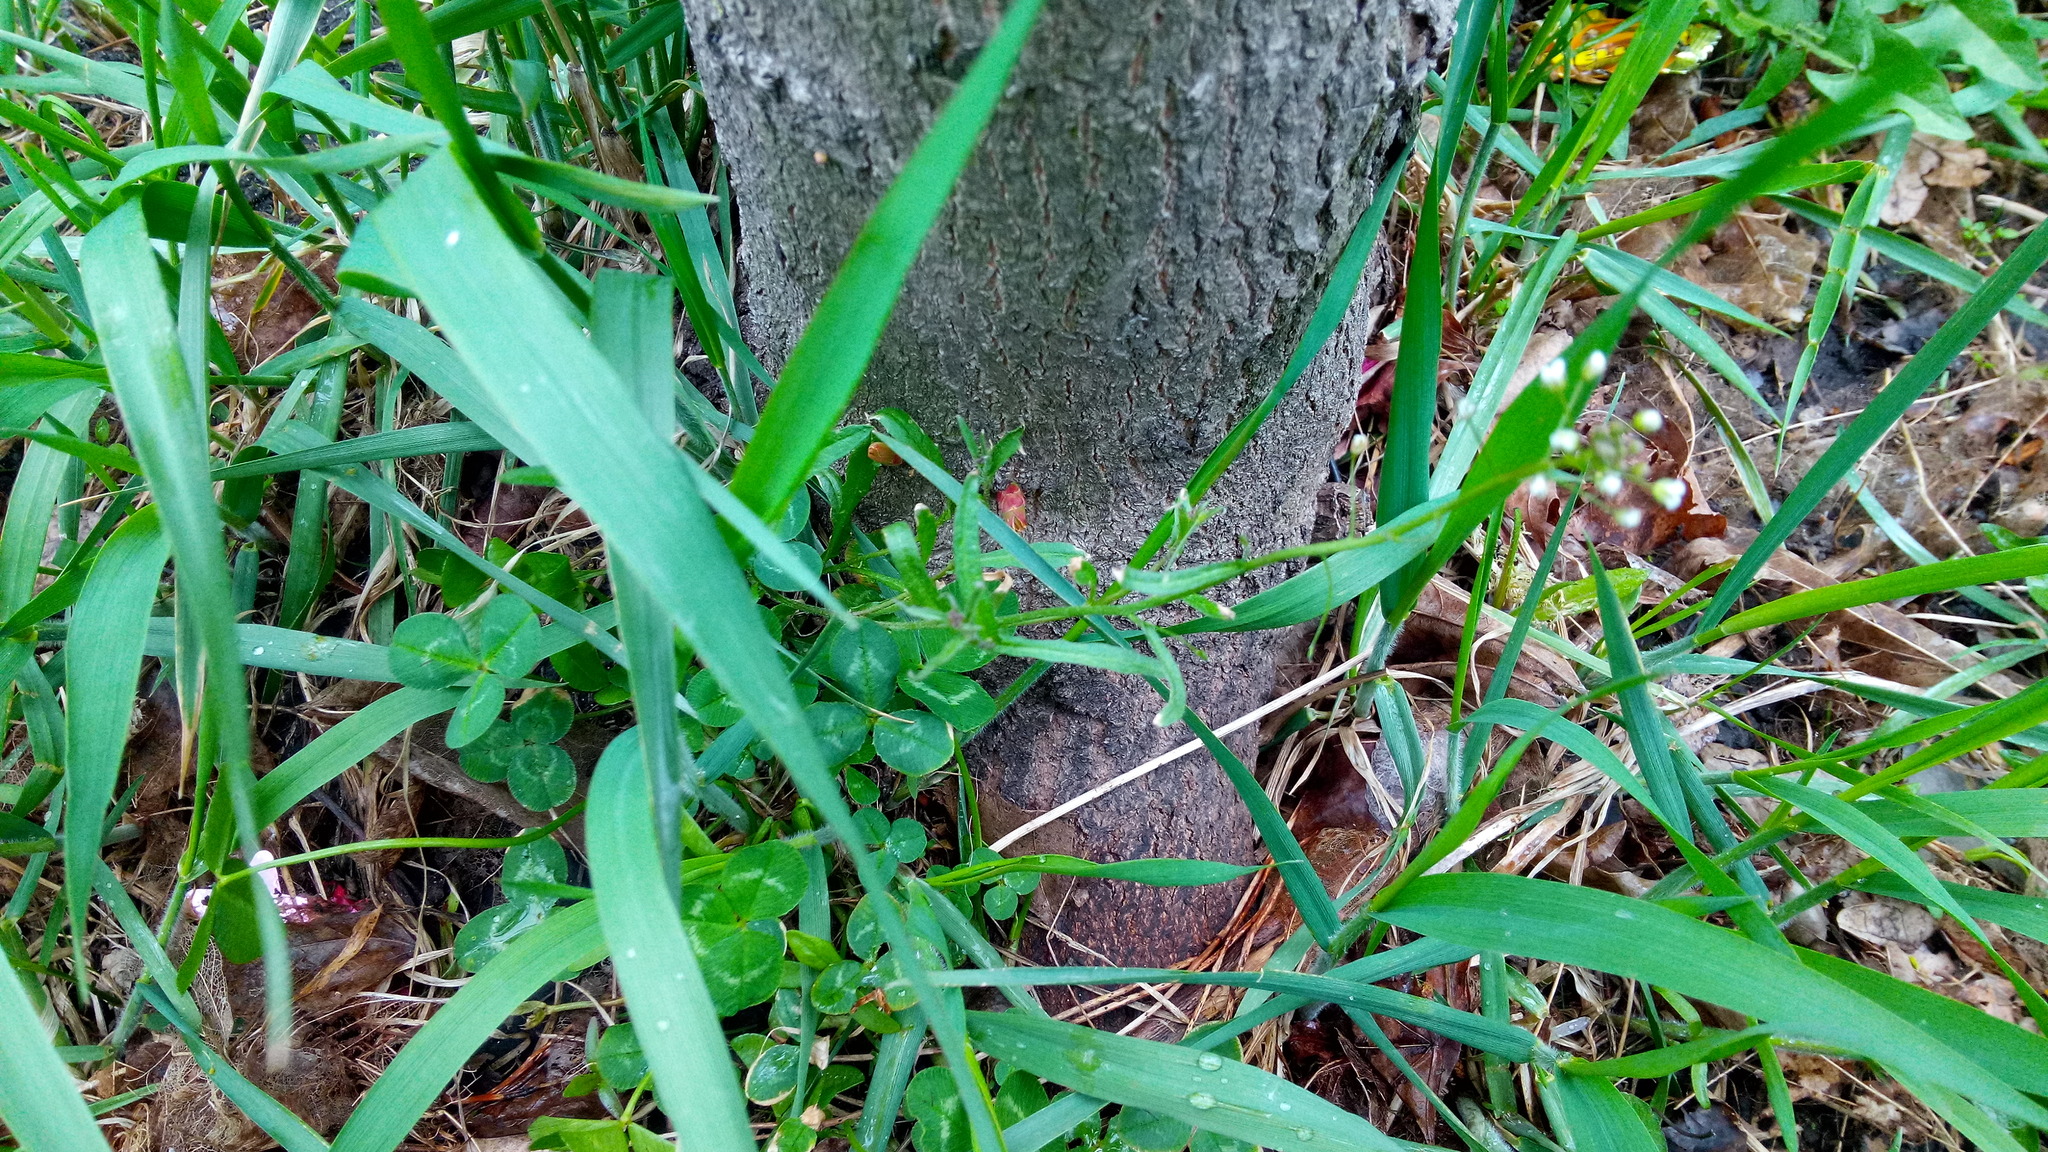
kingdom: Plantae
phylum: Tracheophyta
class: Magnoliopsida
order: Brassicales
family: Brassicaceae
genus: Capsella
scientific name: Capsella bursa-pastoris
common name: Shepherd's purse
